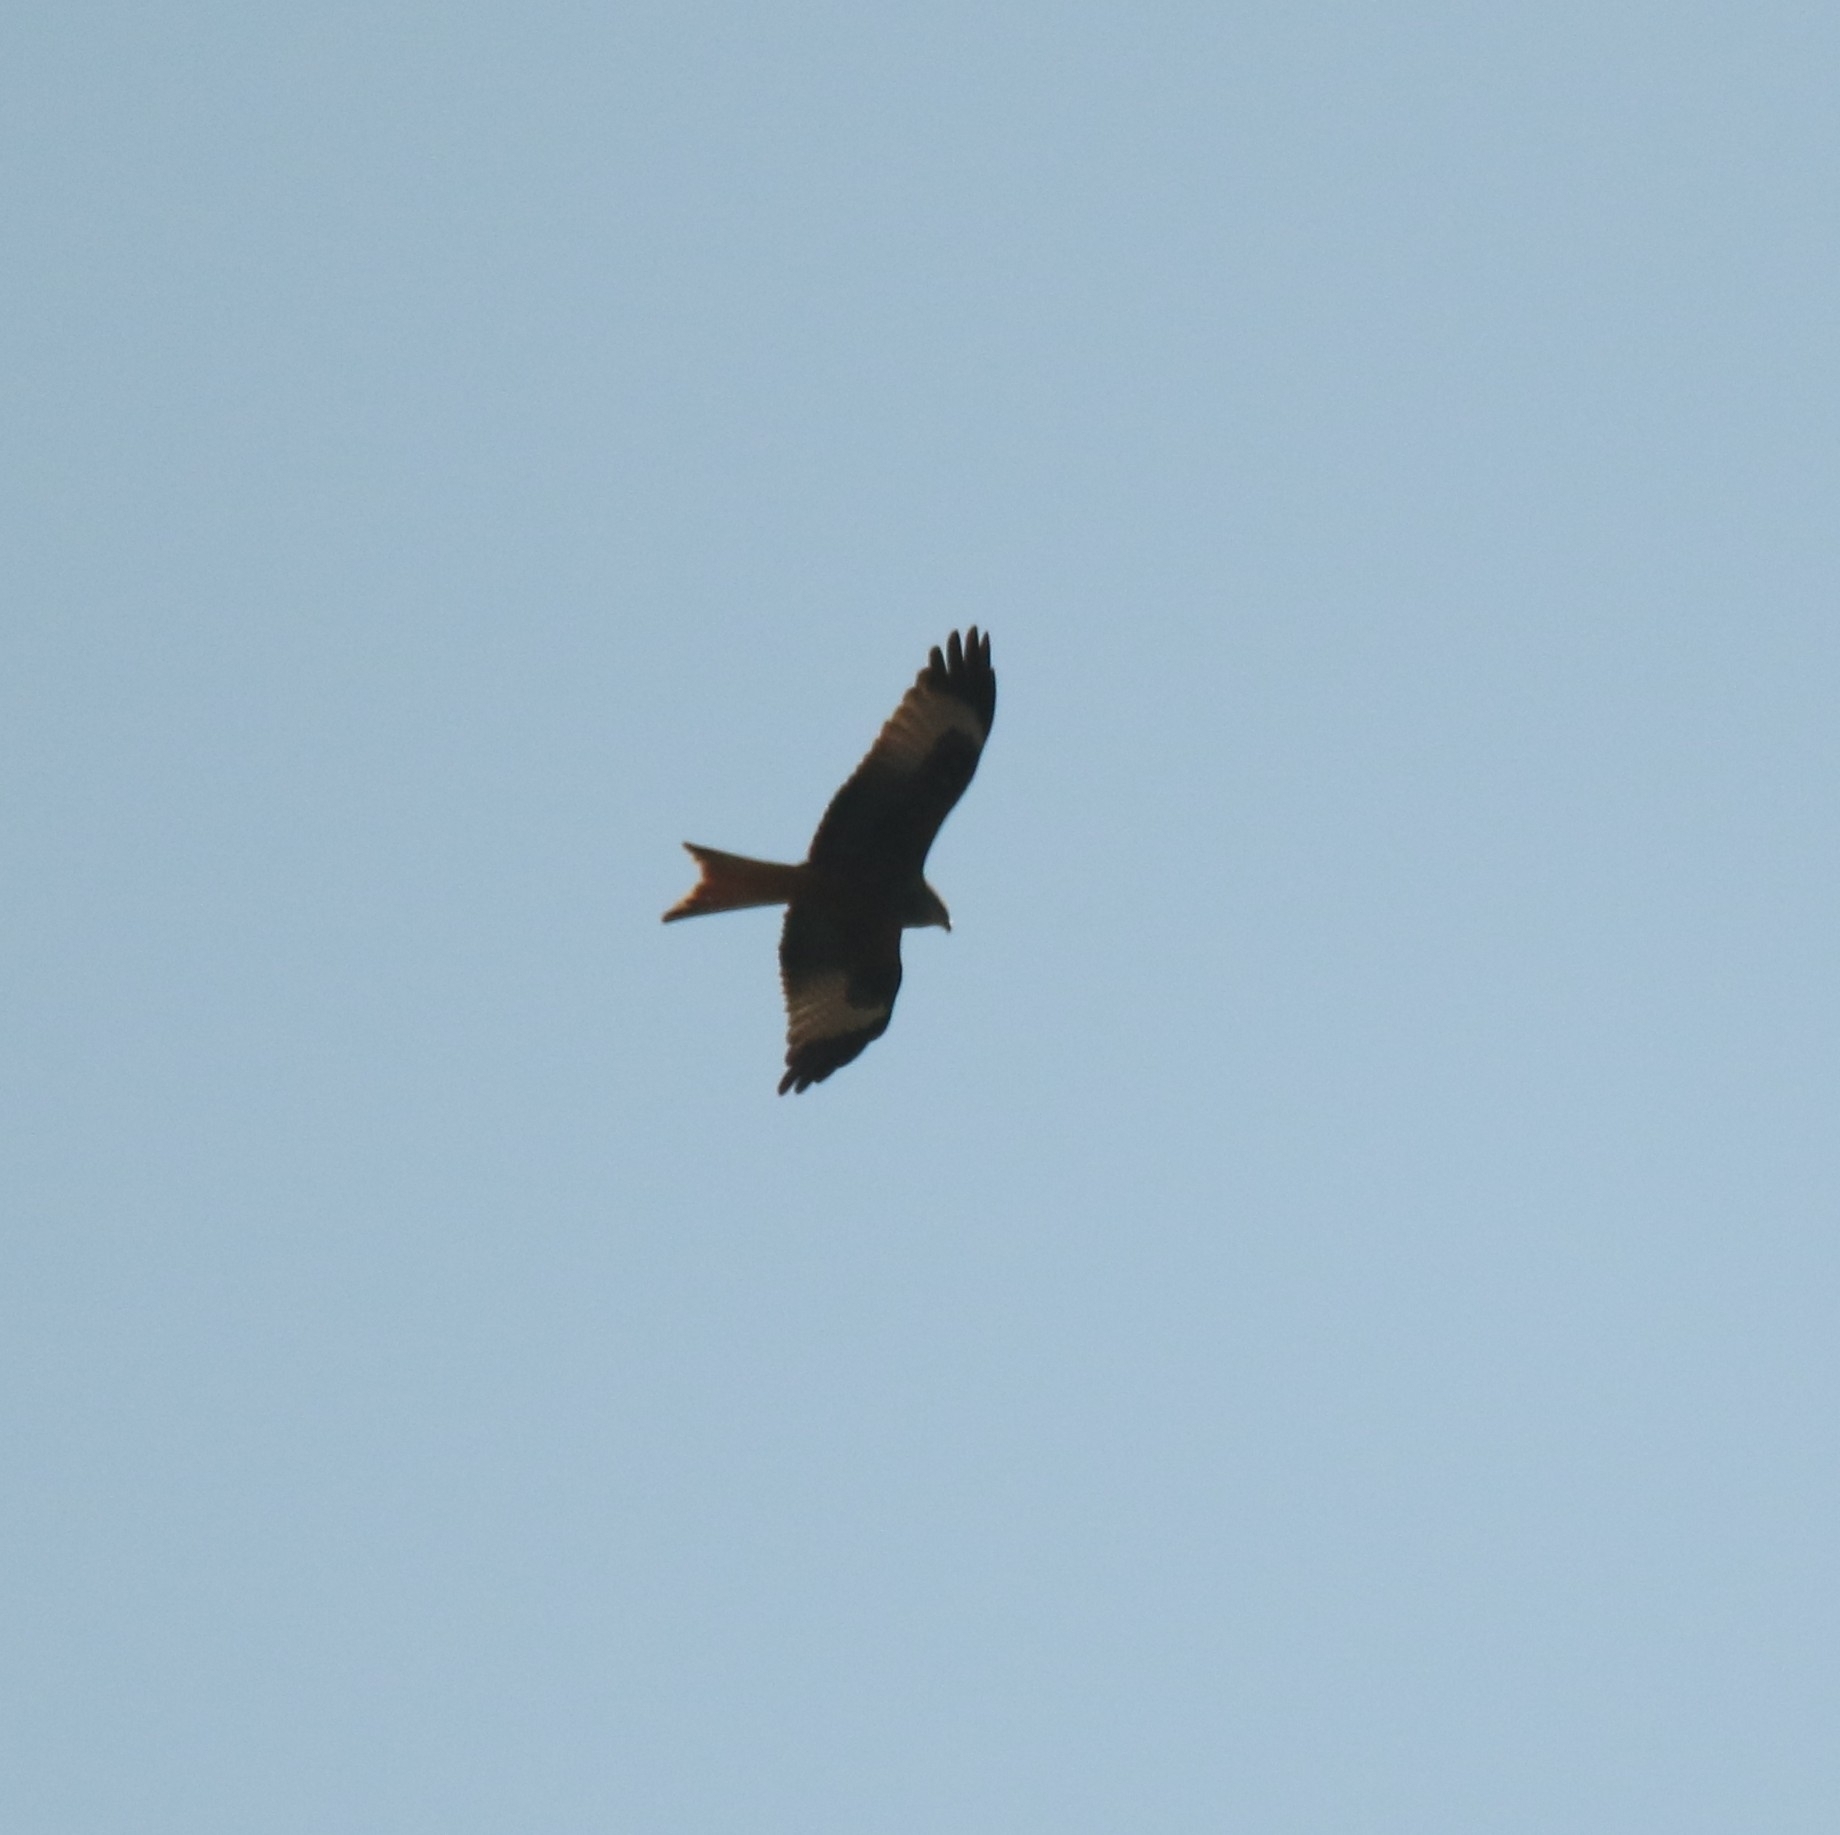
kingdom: Animalia
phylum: Chordata
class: Aves
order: Accipitriformes
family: Accipitridae
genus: Milvus
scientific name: Milvus milvus
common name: Red kite
